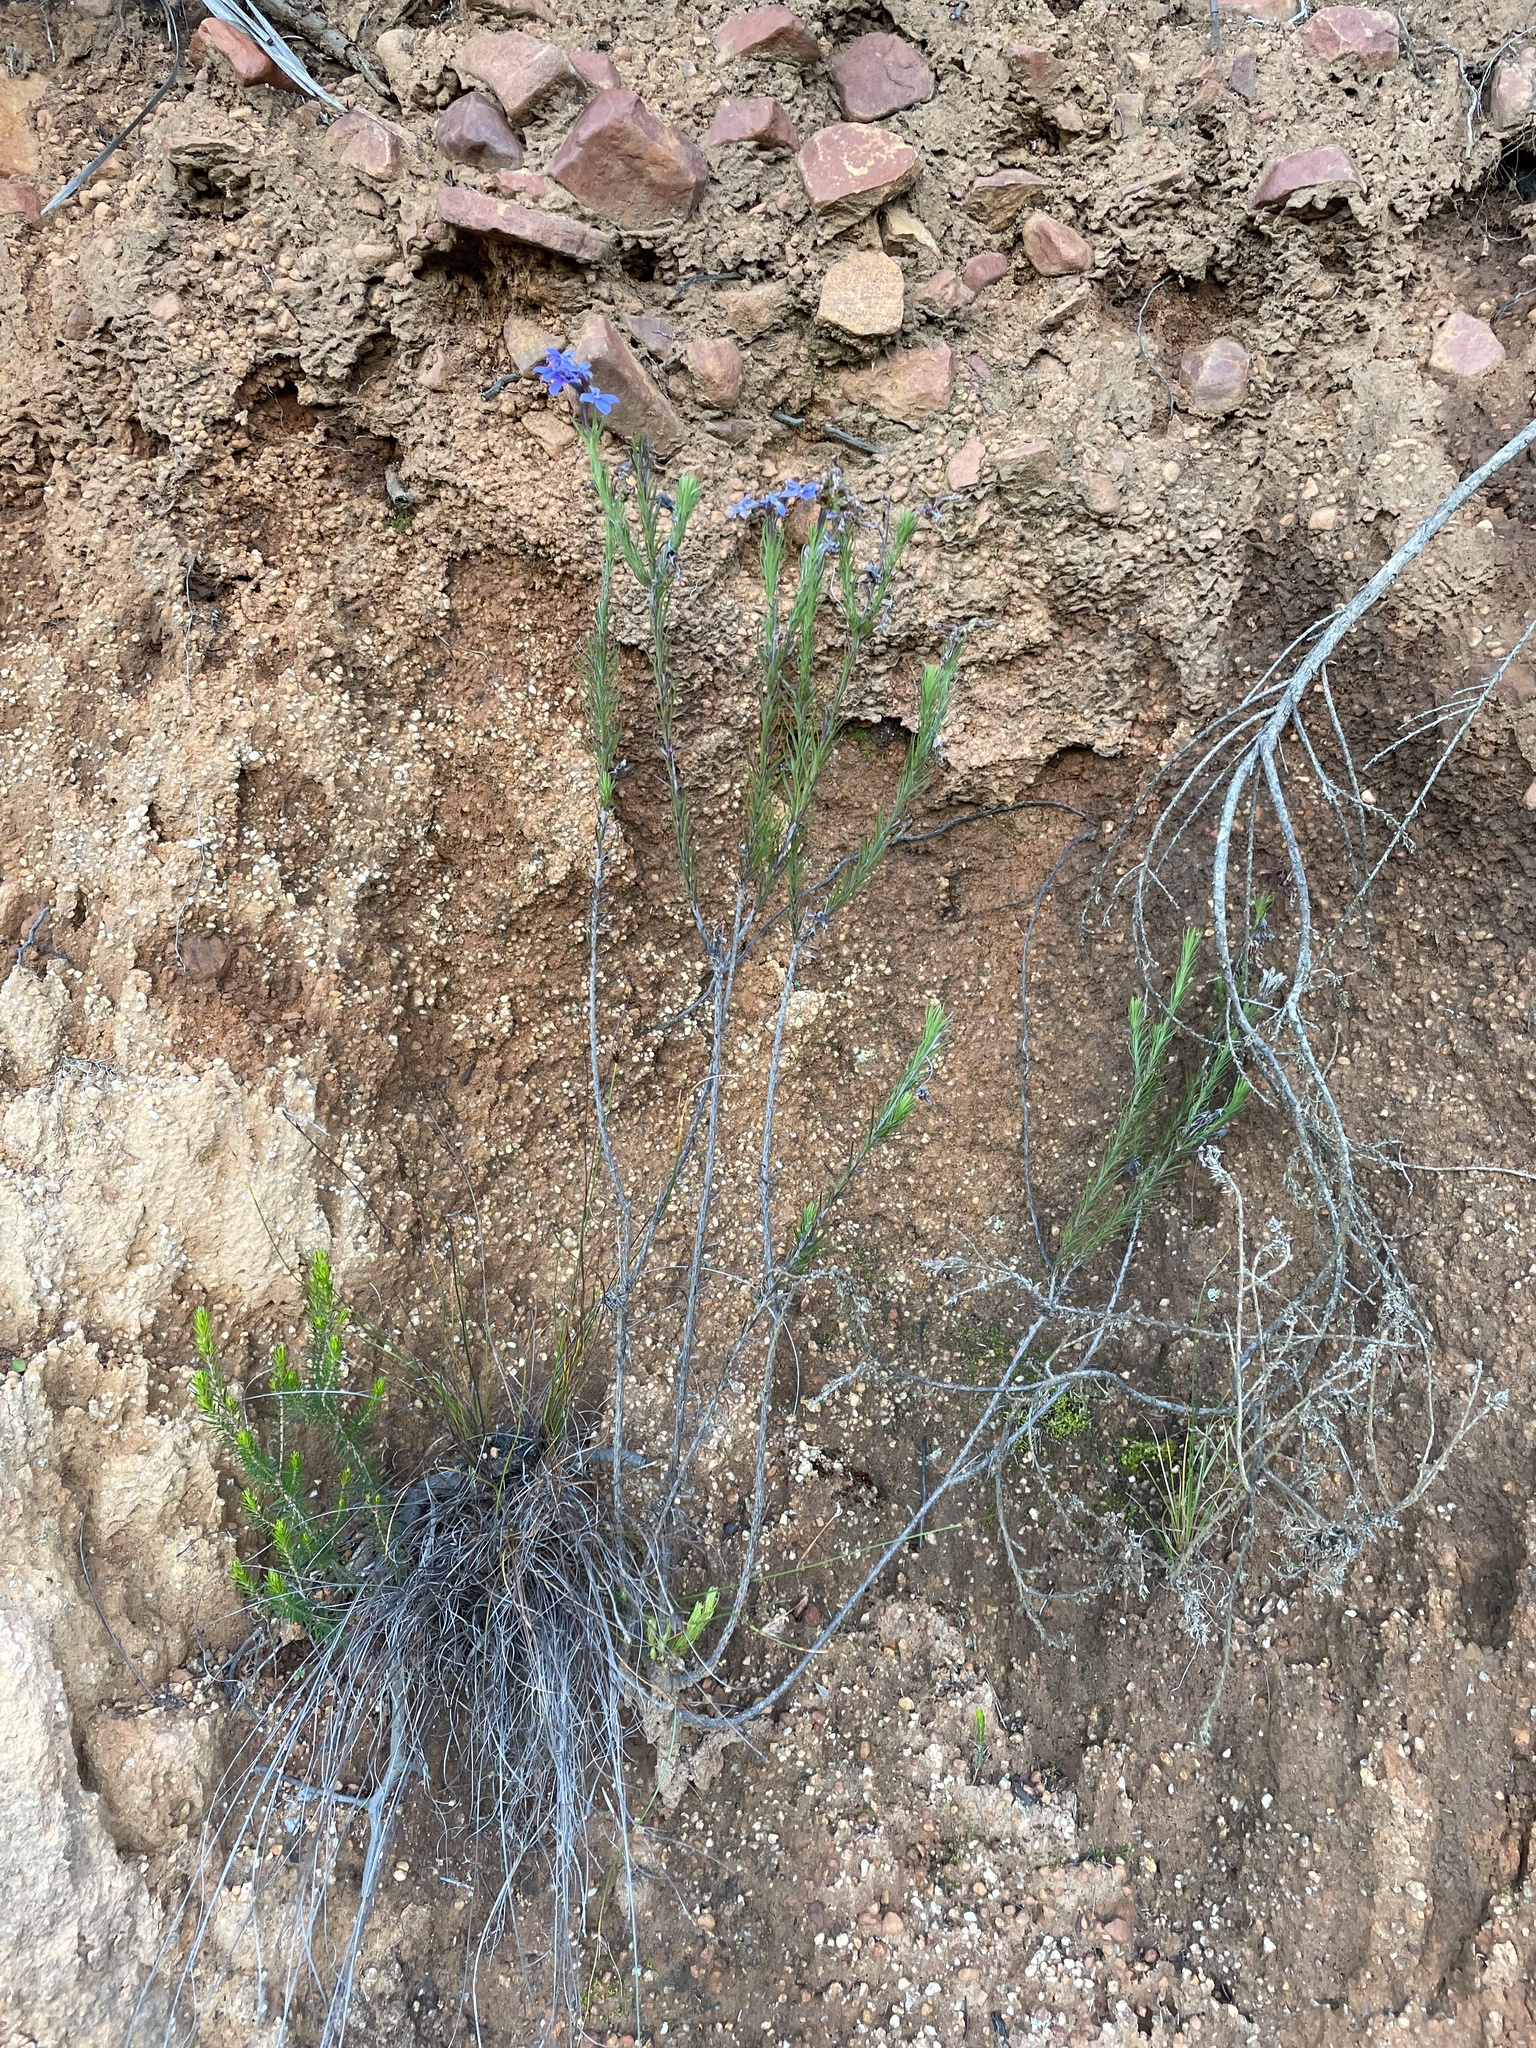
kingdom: Plantae
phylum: Tracheophyta
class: Magnoliopsida
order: Asterales
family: Campanulaceae
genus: Lobelia
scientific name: Lobelia pinifolia
